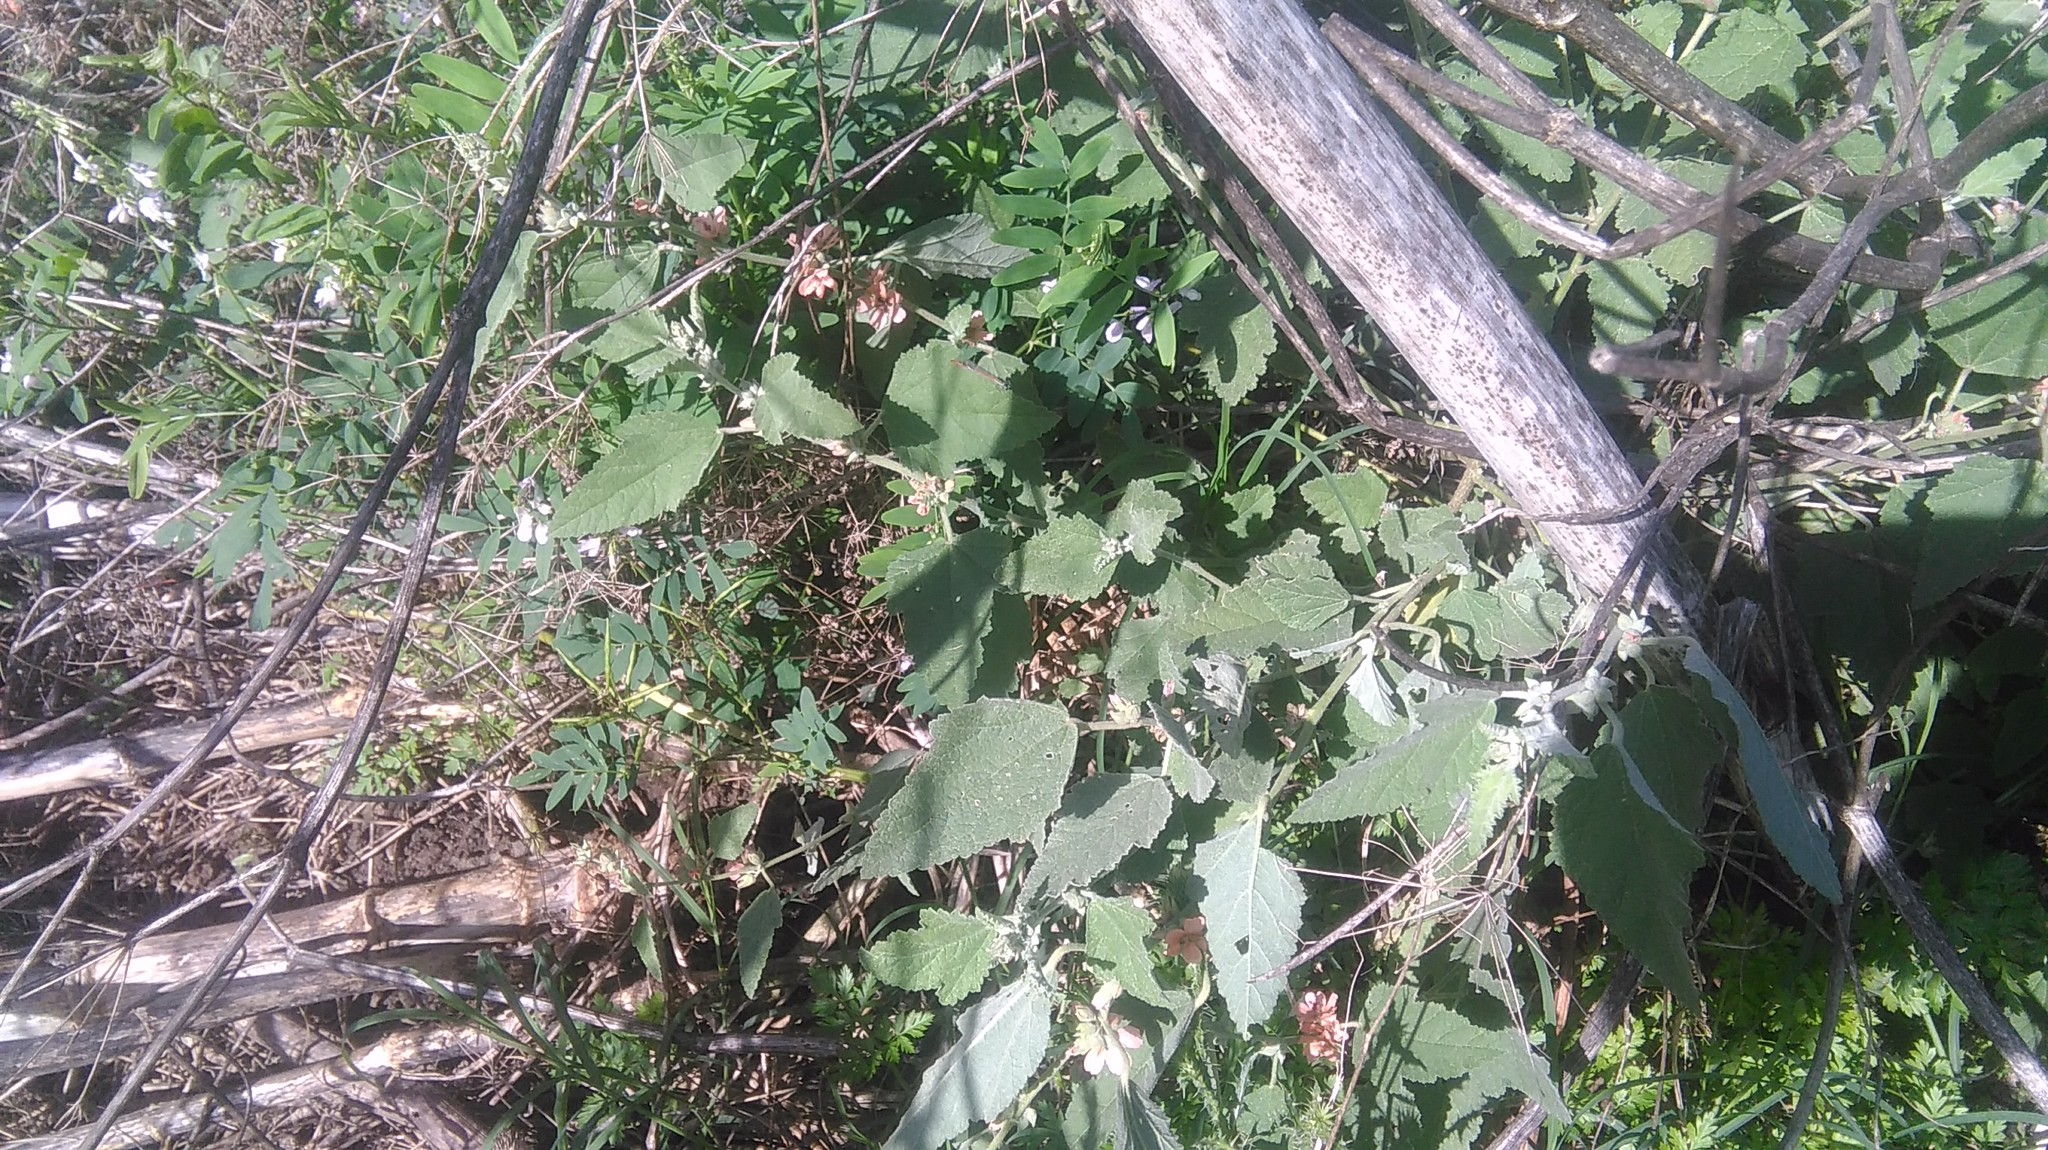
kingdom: Plantae
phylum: Tracheophyta
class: Magnoliopsida
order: Malvales
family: Malvaceae
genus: Sphaeralcea
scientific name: Sphaeralcea bonariensis
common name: Latin globemallow
